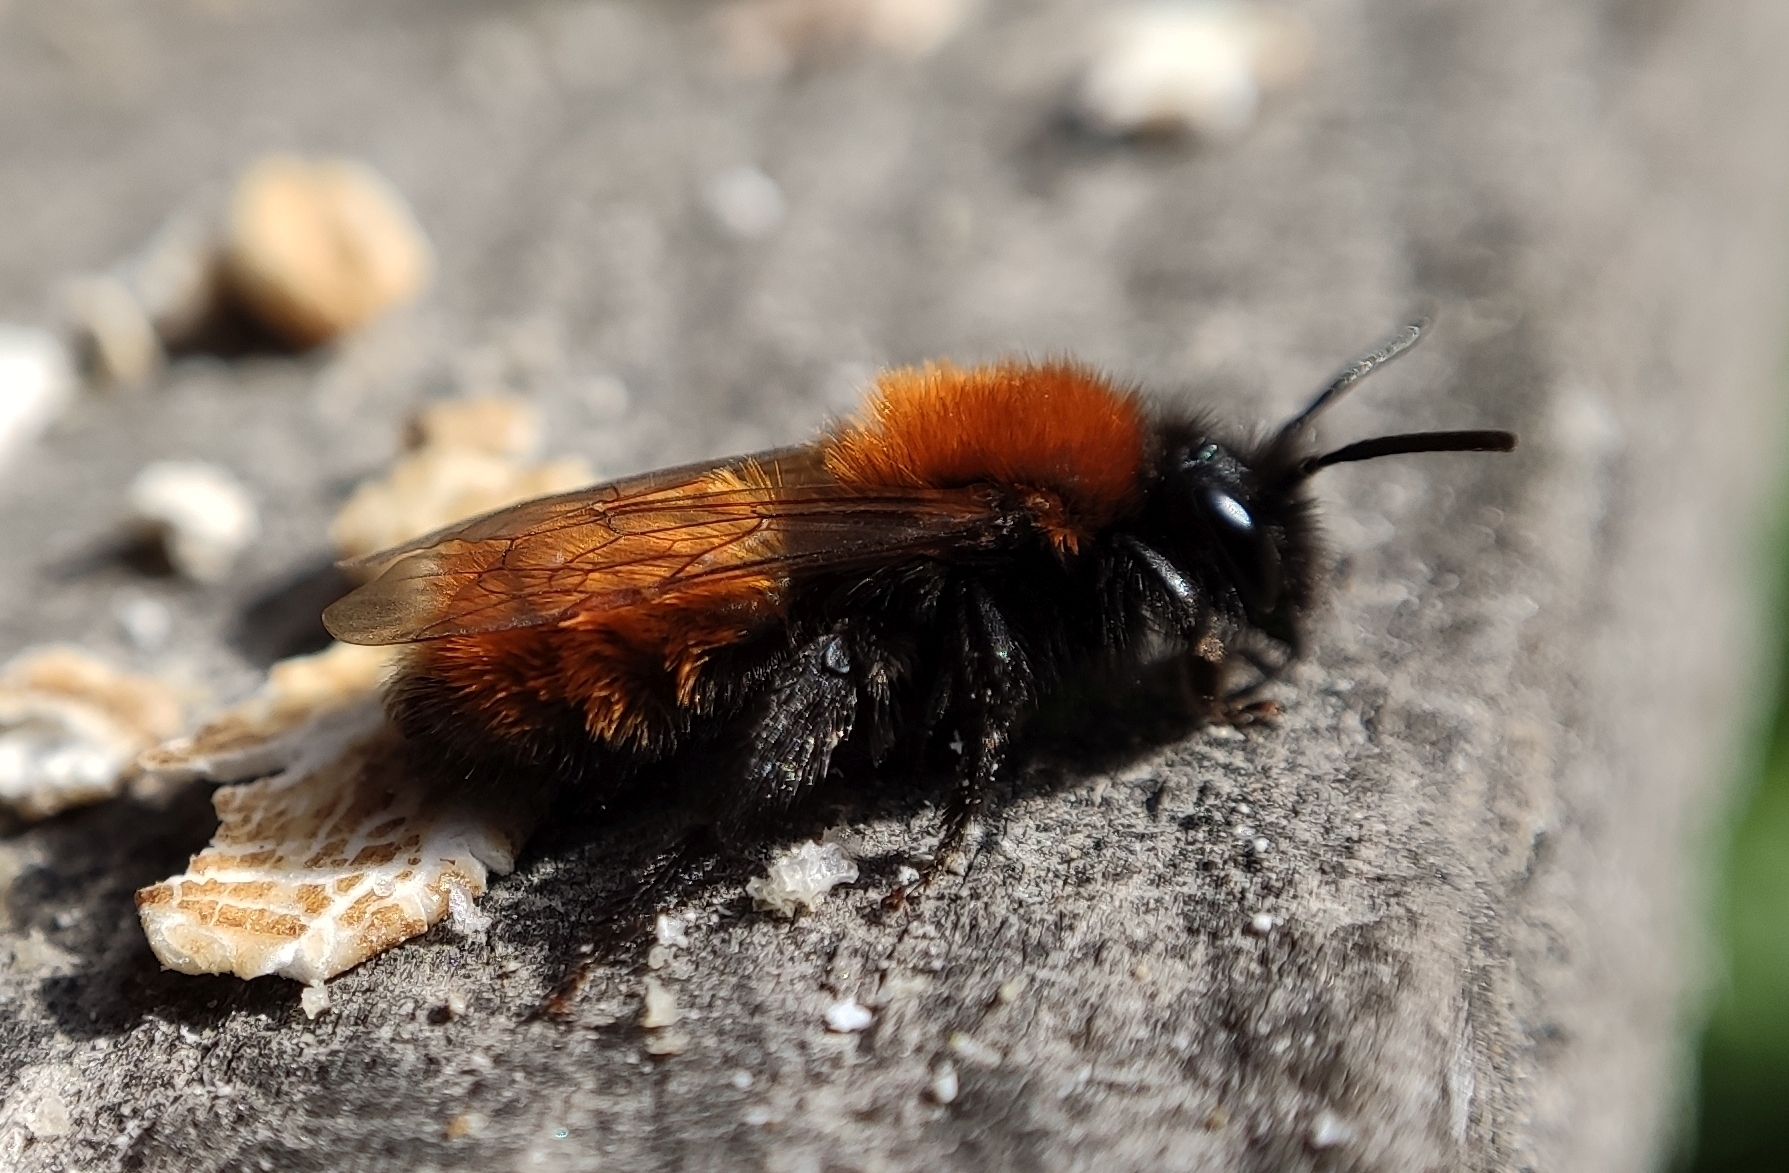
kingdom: Animalia
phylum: Arthropoda
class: Insecta
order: Hymenoptera
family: Andrenidae
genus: Andrena
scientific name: Andrena fulva
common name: Tawny mining bee
